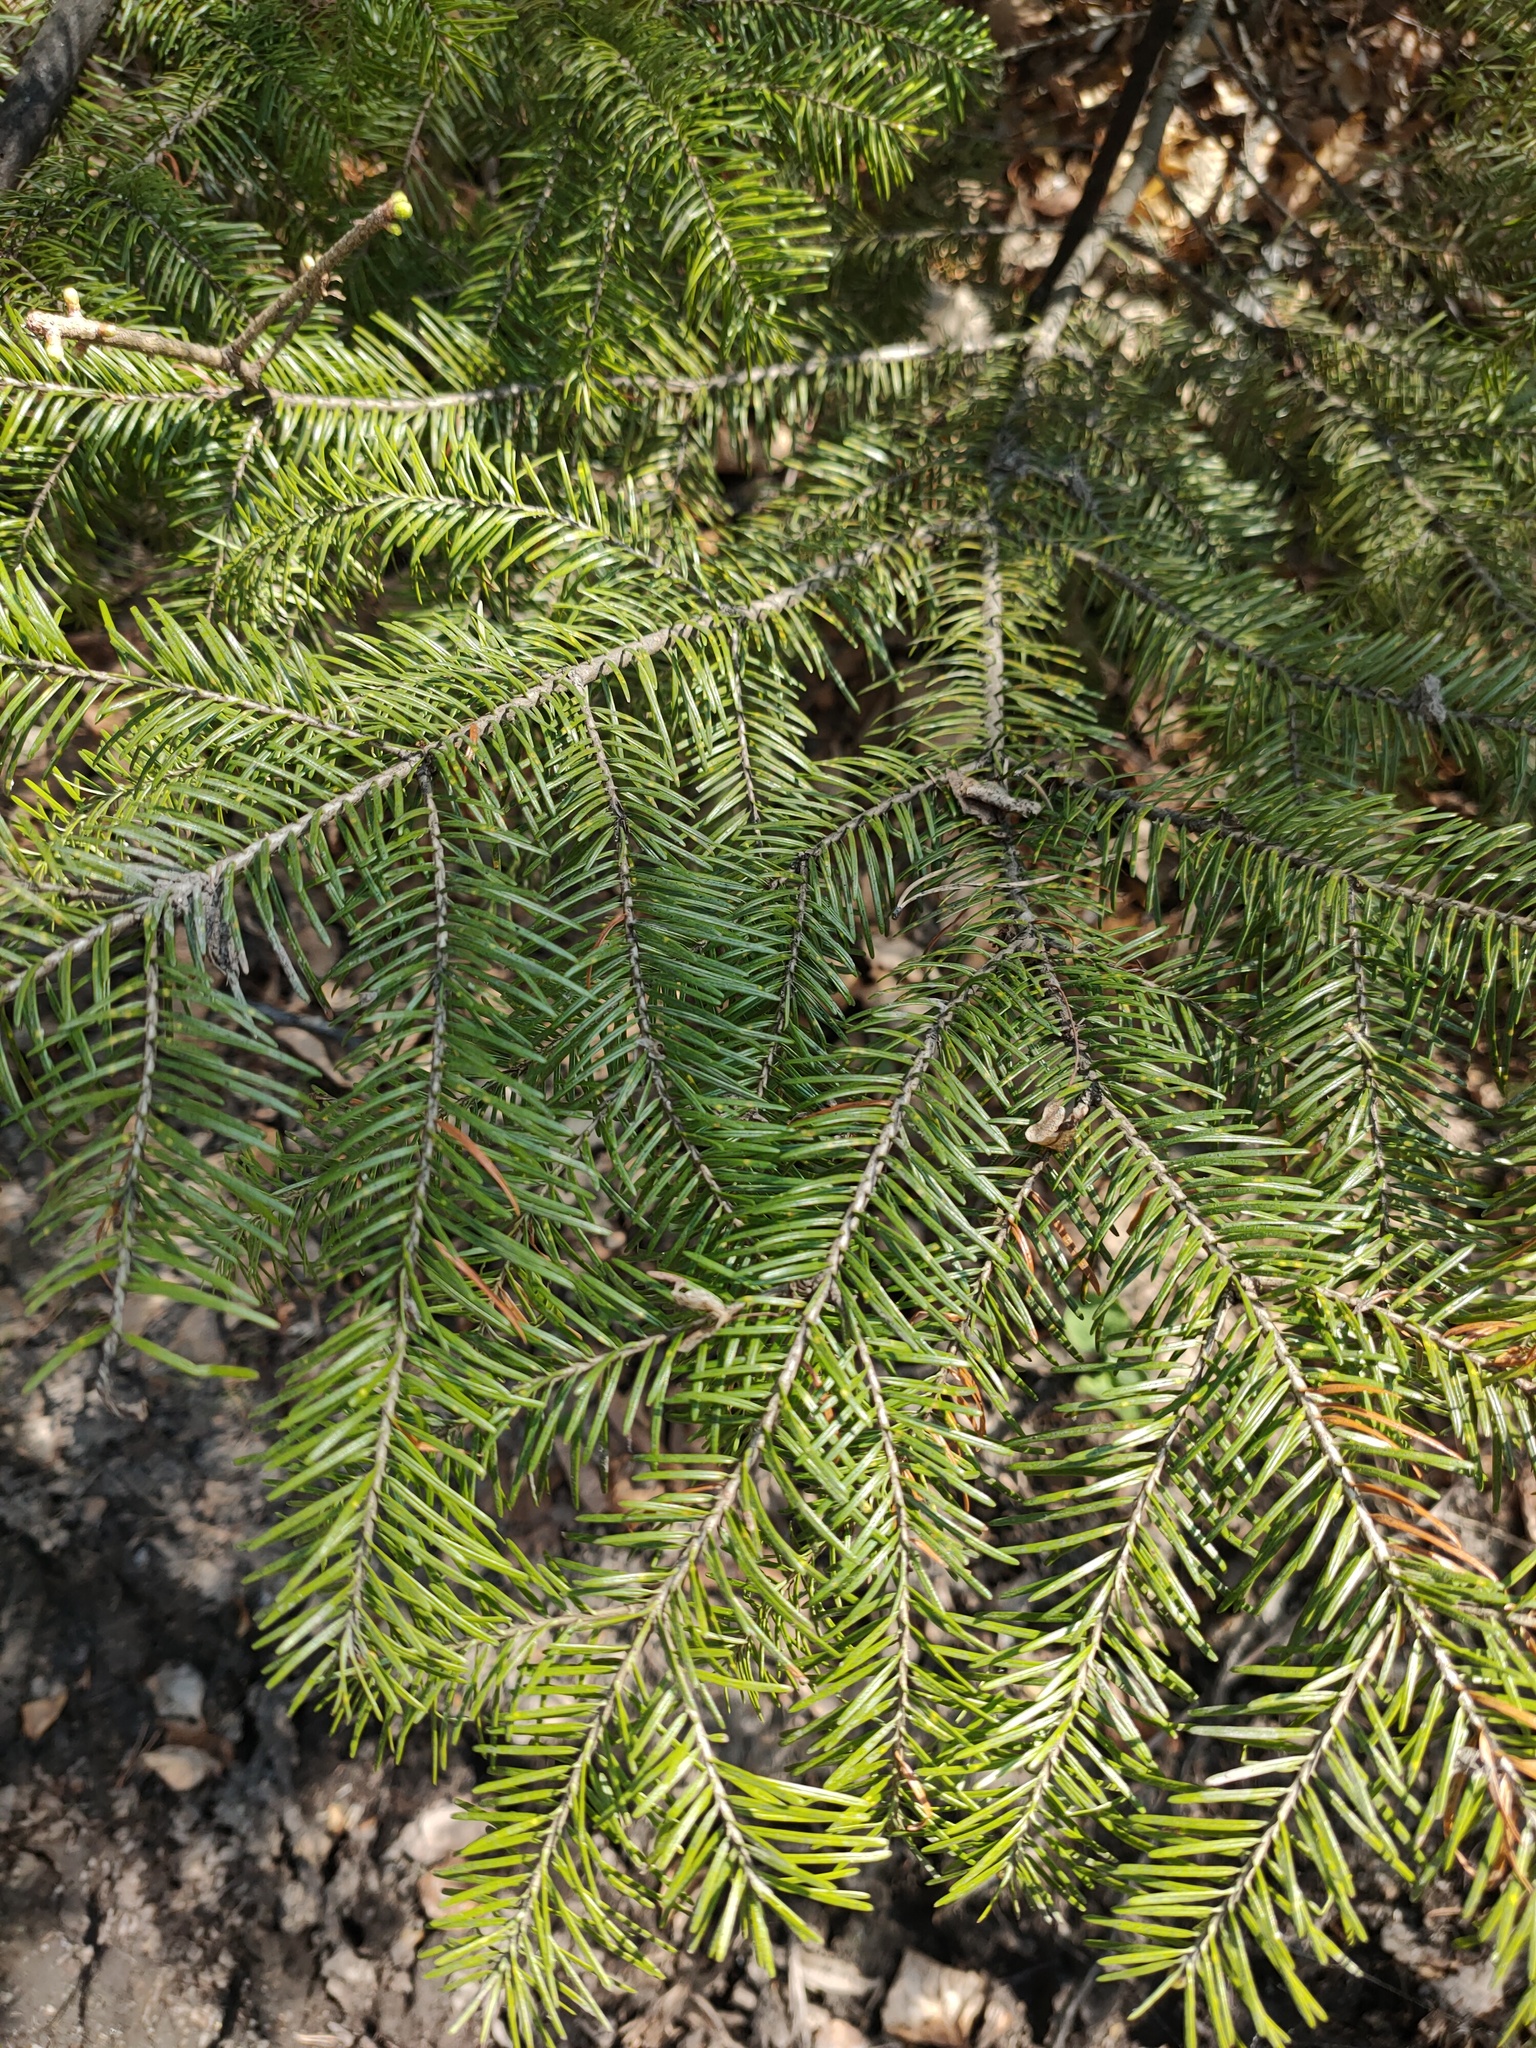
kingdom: Plantae
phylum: Tracheophyta
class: Pinopsida
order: Pinales
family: Pinaceae
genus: Abies
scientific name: Abies sibirica
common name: Siberian fir
